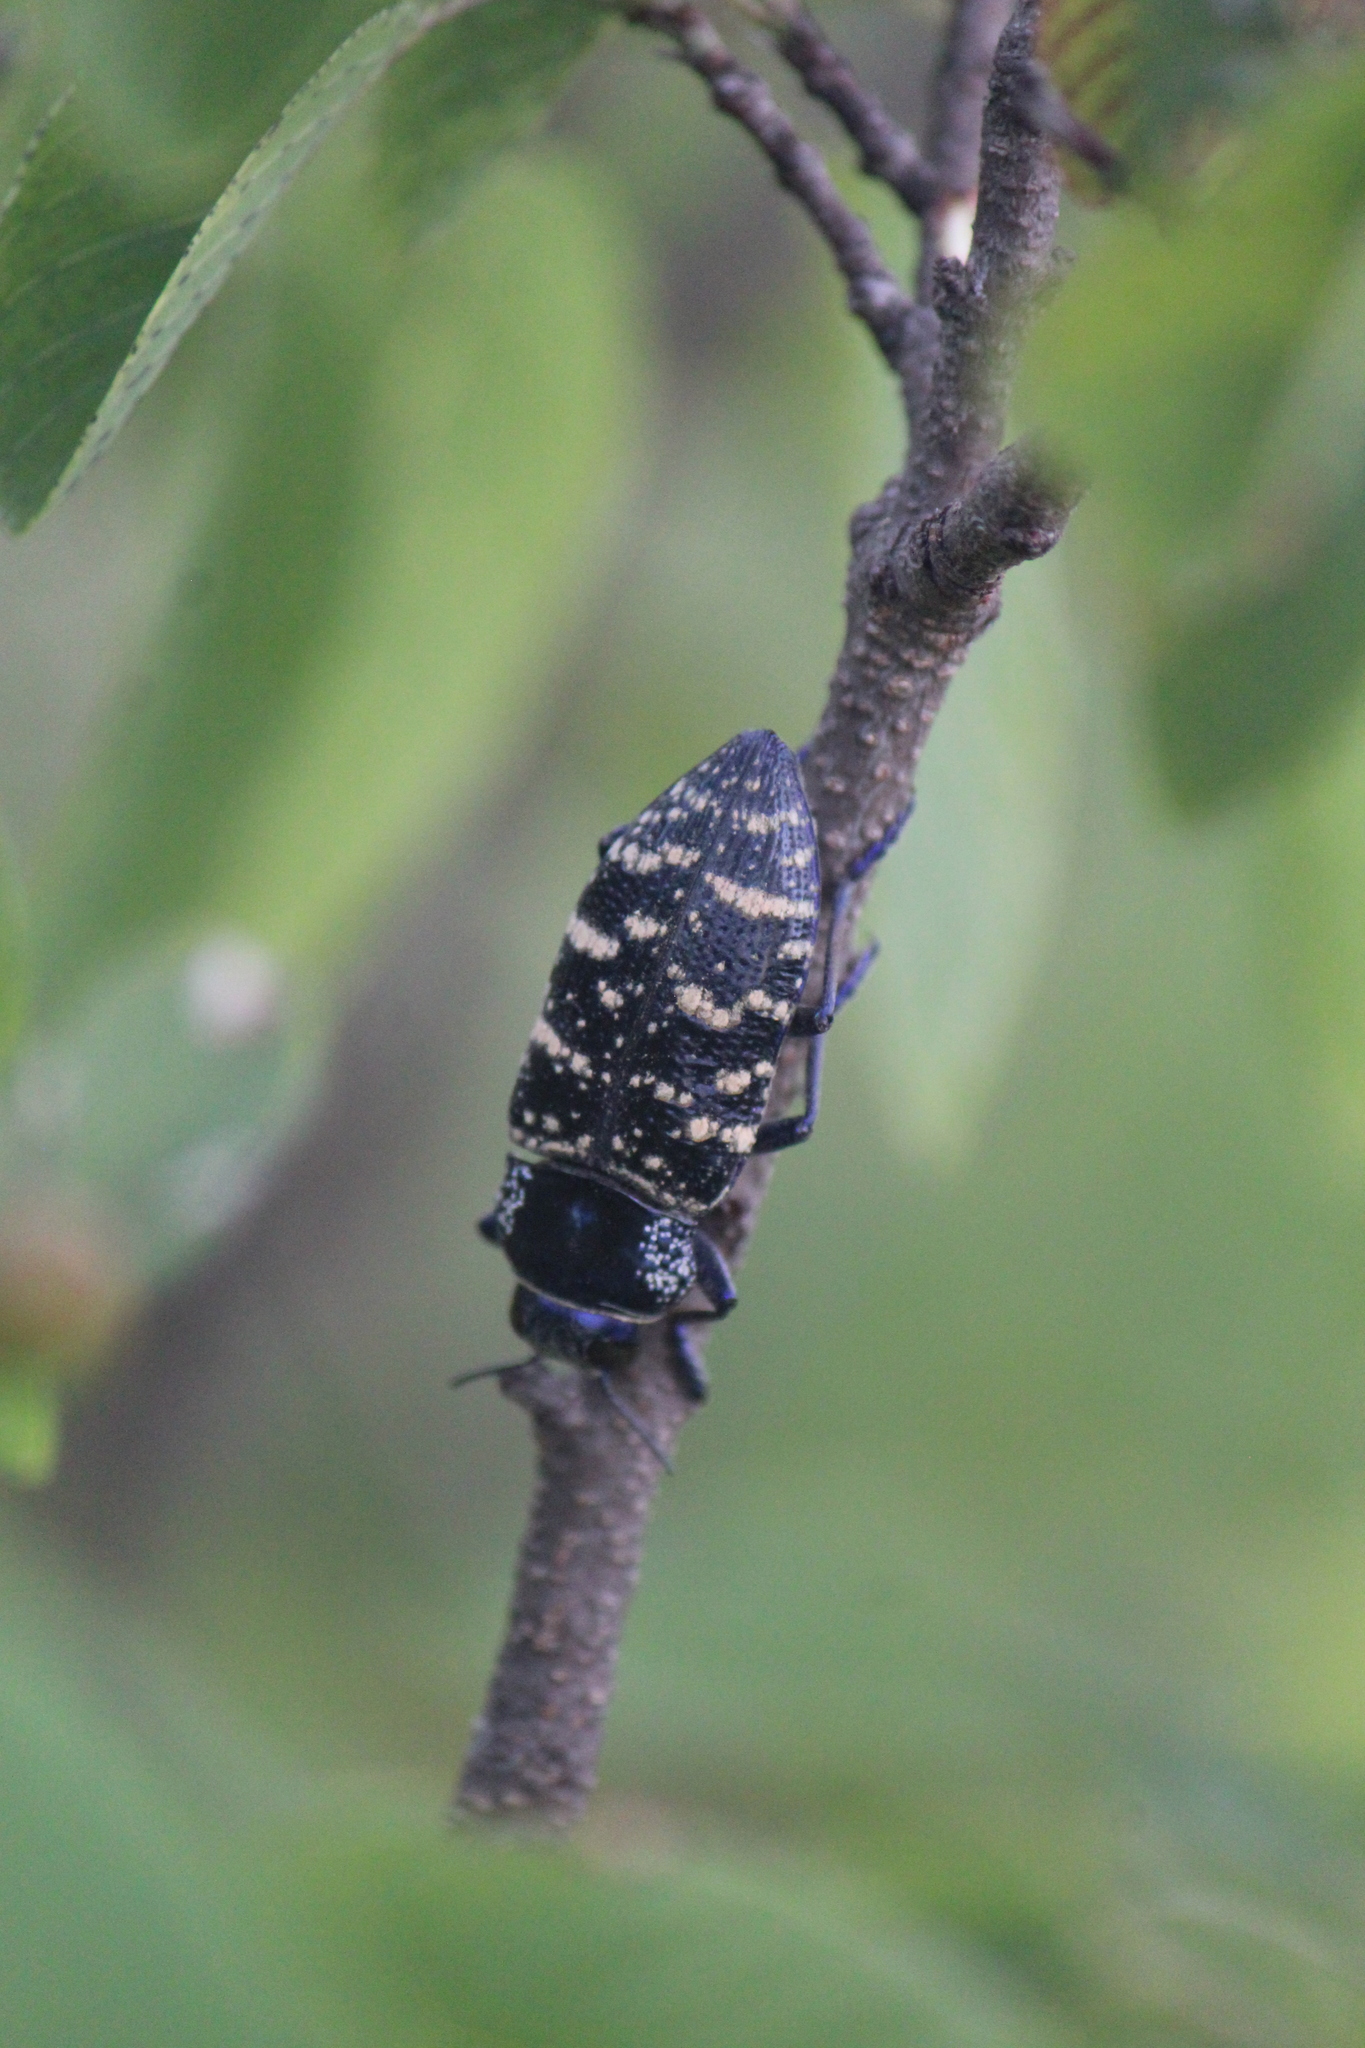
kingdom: Animalia
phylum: Arthropoda
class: Insecta
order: Coleoptera
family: Buprestidae
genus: Lampetis
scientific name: Lampetis dilaticollis
